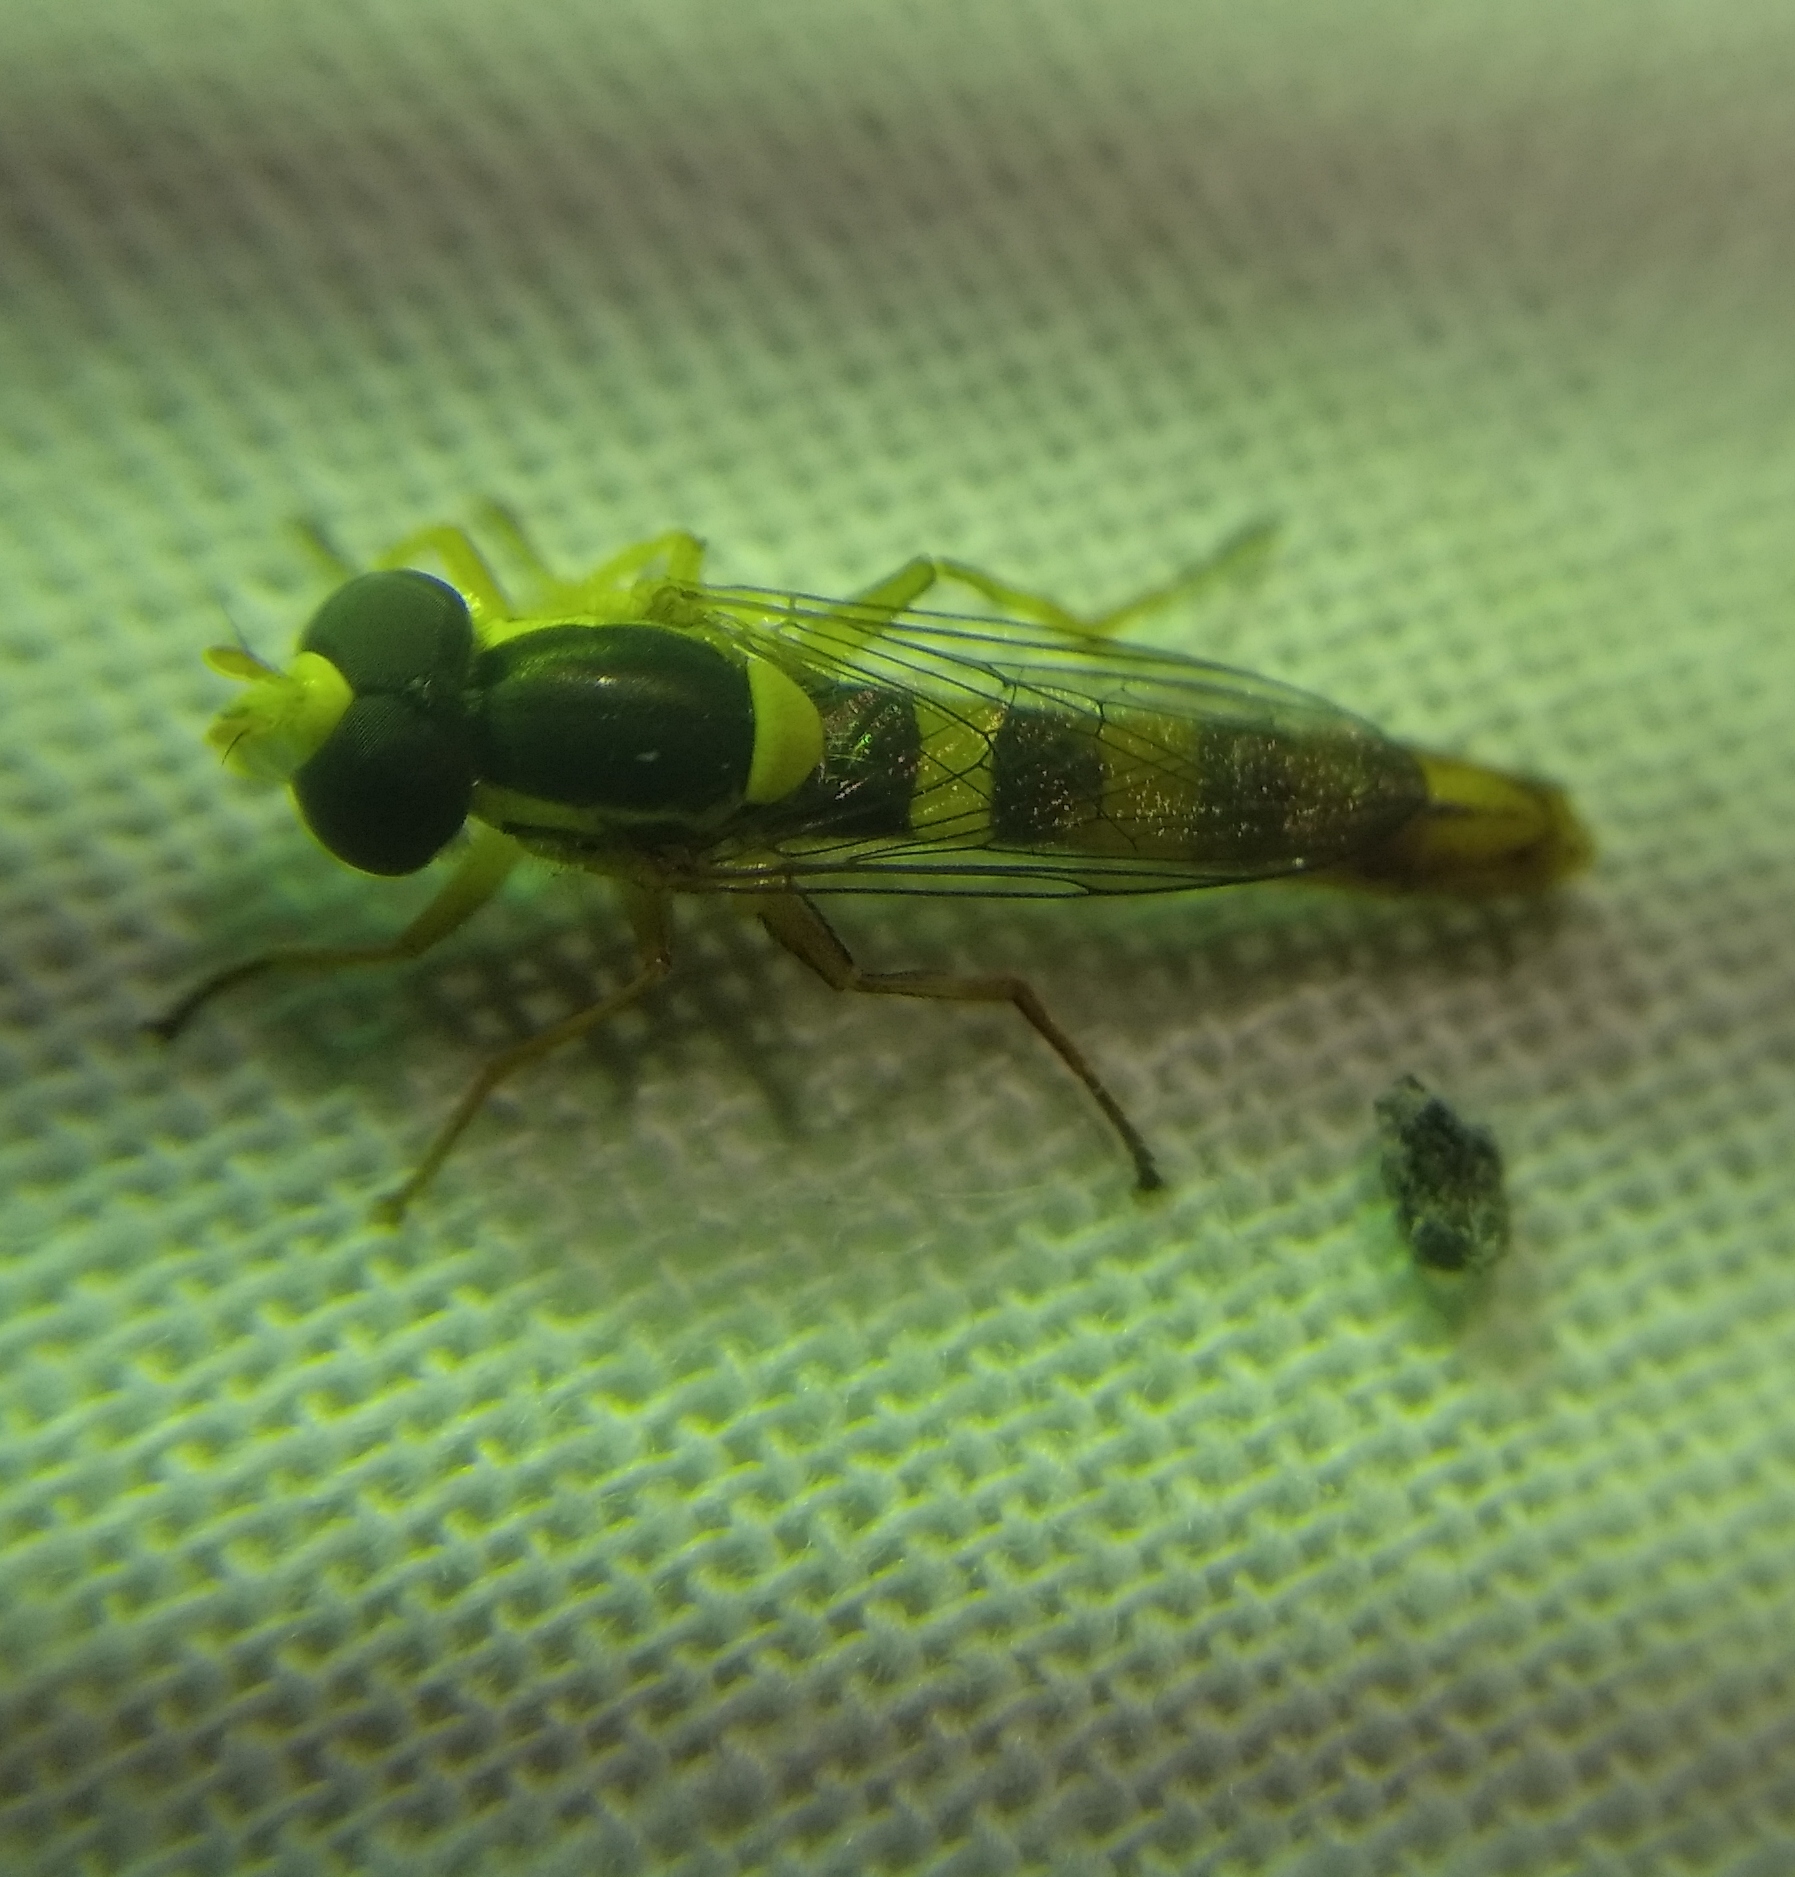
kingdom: Animalia
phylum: Arthropoda
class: Insecta
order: Diptera
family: Syrphidae
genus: Sphaerophoria
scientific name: Sphaerophoria scripta
